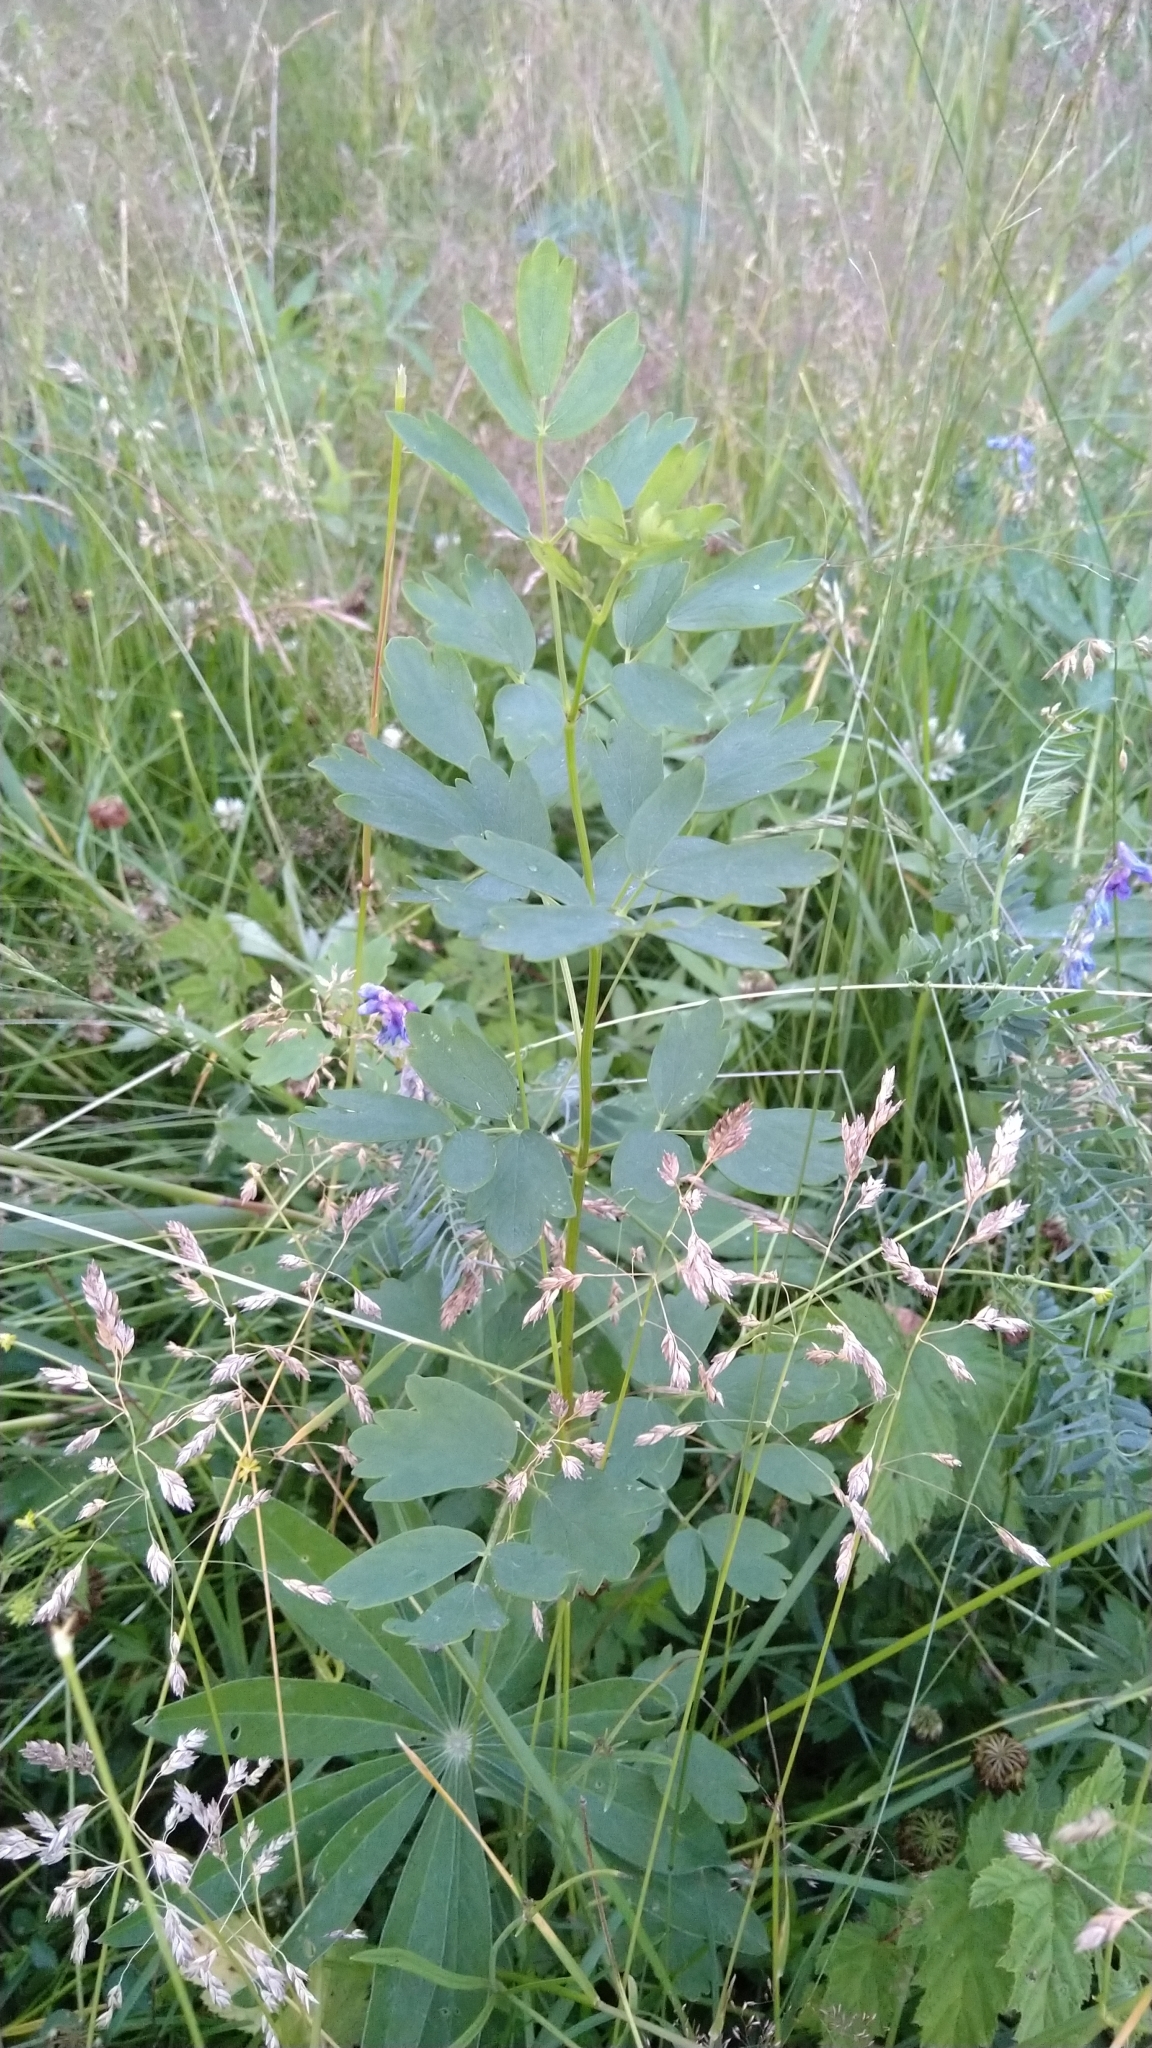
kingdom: Plantae
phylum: Tracheophyta
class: Magnoliopsida
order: Ranunculales
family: Ranunculaceae
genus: Thalictrum
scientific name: Thalictrum flavum
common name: Common meadow-rue
